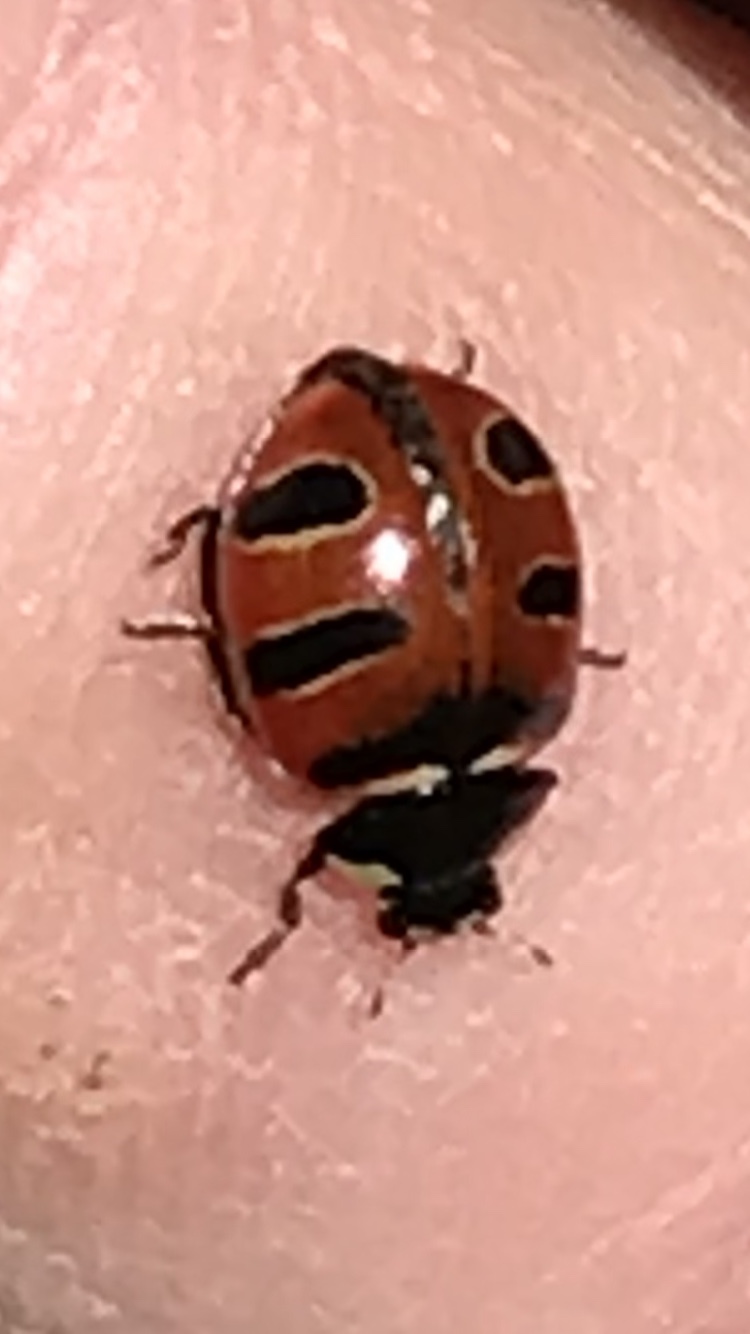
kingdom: Animalia
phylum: Arthropoda
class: Insecta
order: Coleoptera
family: Coccinellidae
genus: Coccinella
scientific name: Coccinella trifasciata
